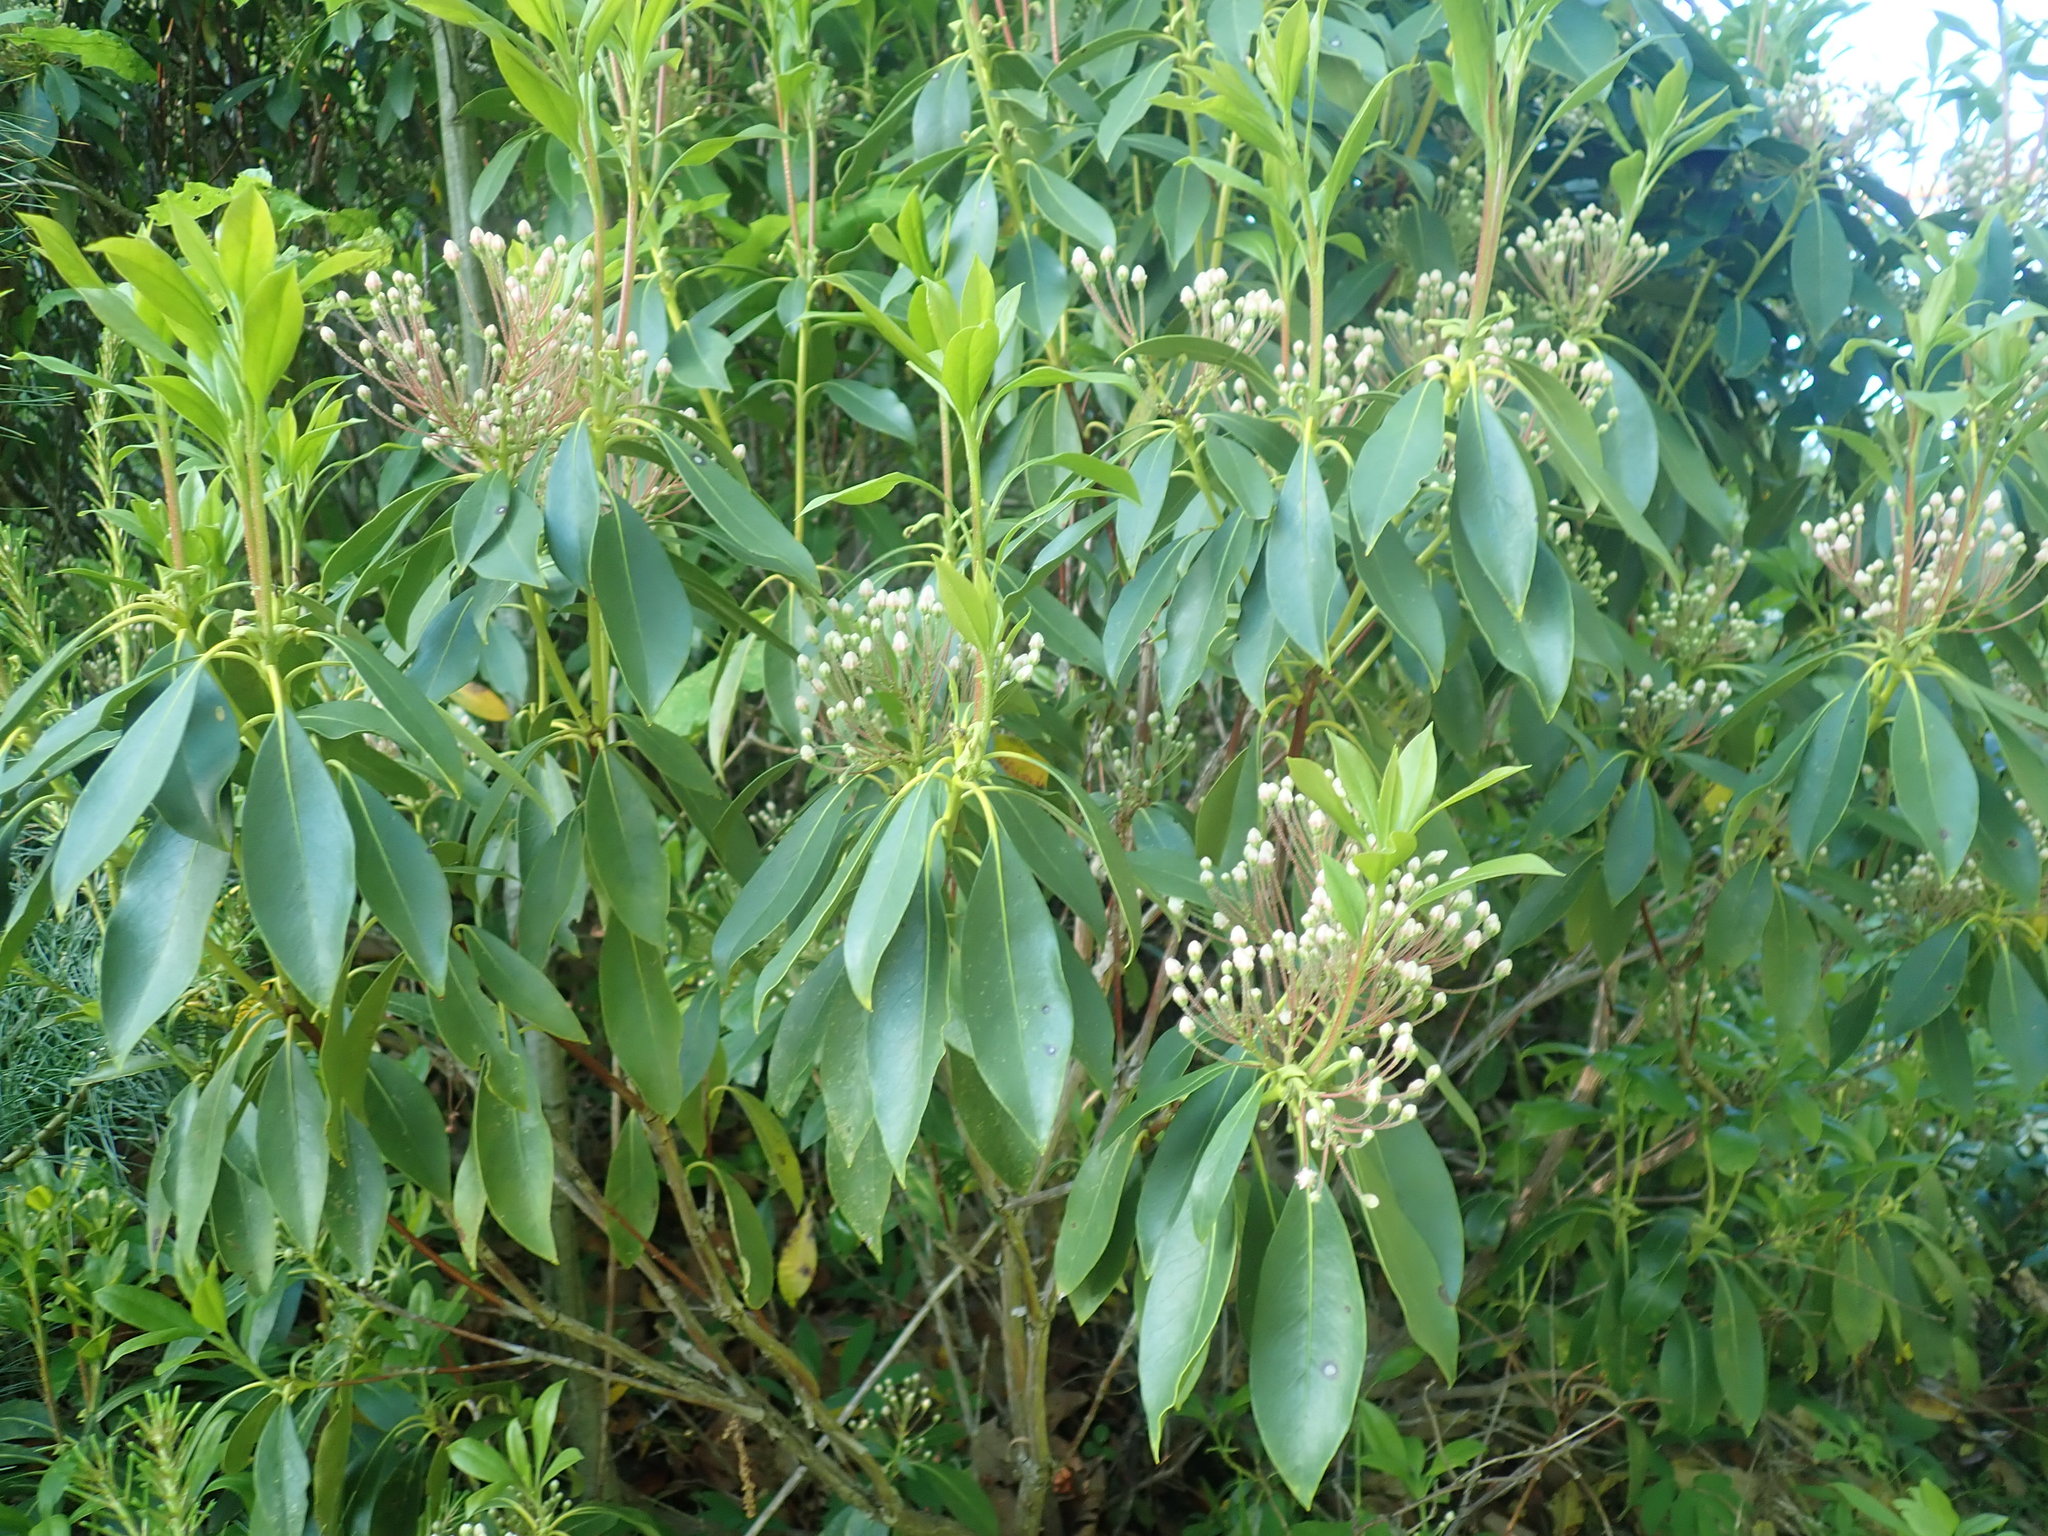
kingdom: Plantae
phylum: Tracheophyta
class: Magnoliopsida
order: Ericales
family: Ericaceae
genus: Kalmia
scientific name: Kalmia latifolia
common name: Mountain-laurel
